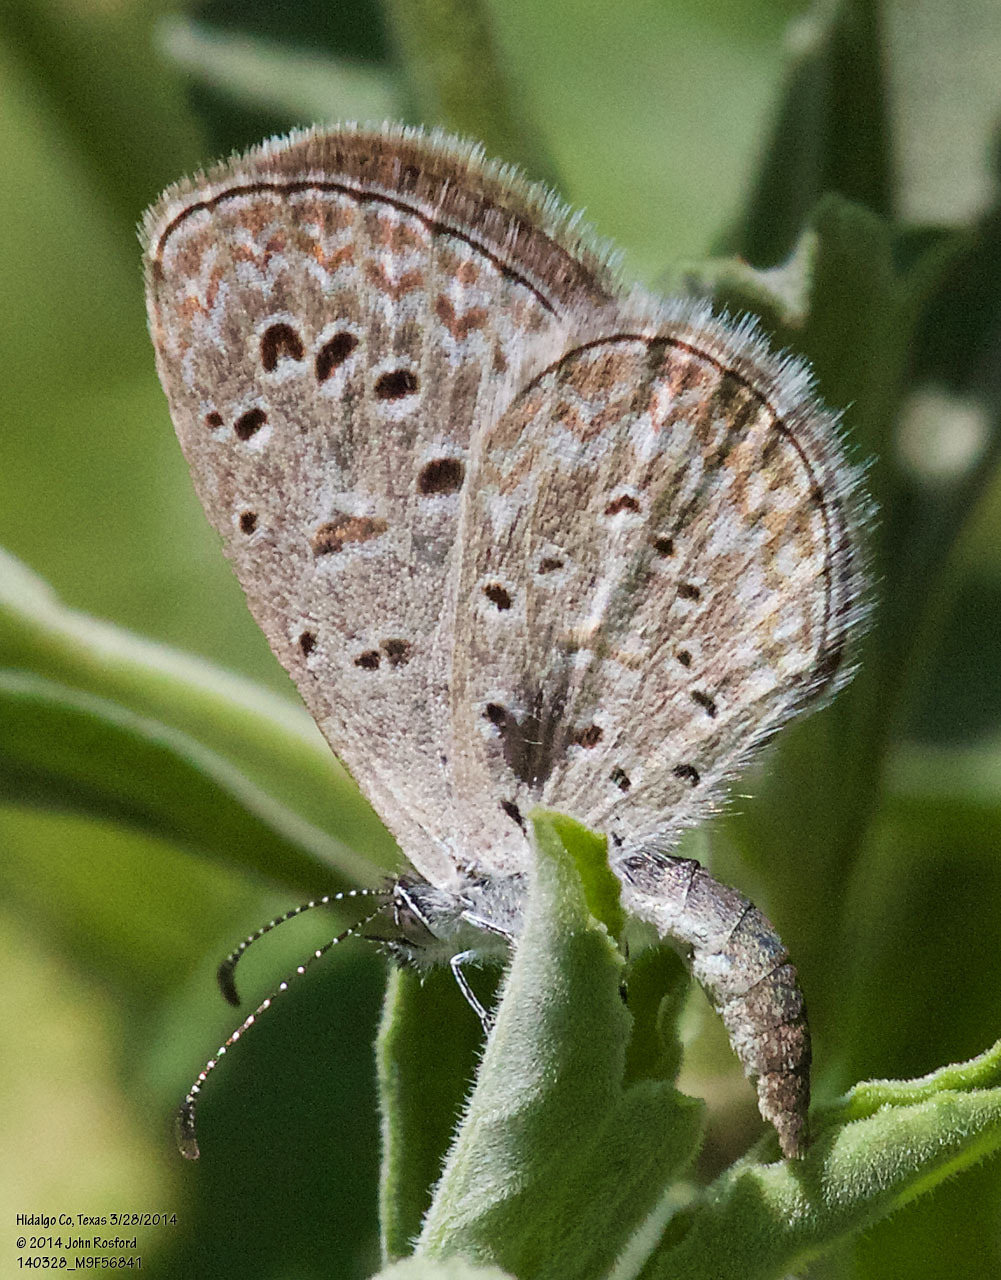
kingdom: Animalia
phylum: Arthropoda
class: Insecta
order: Lepidoptera
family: Lycaenidae
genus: Lycaena
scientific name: Lycaena cyna
